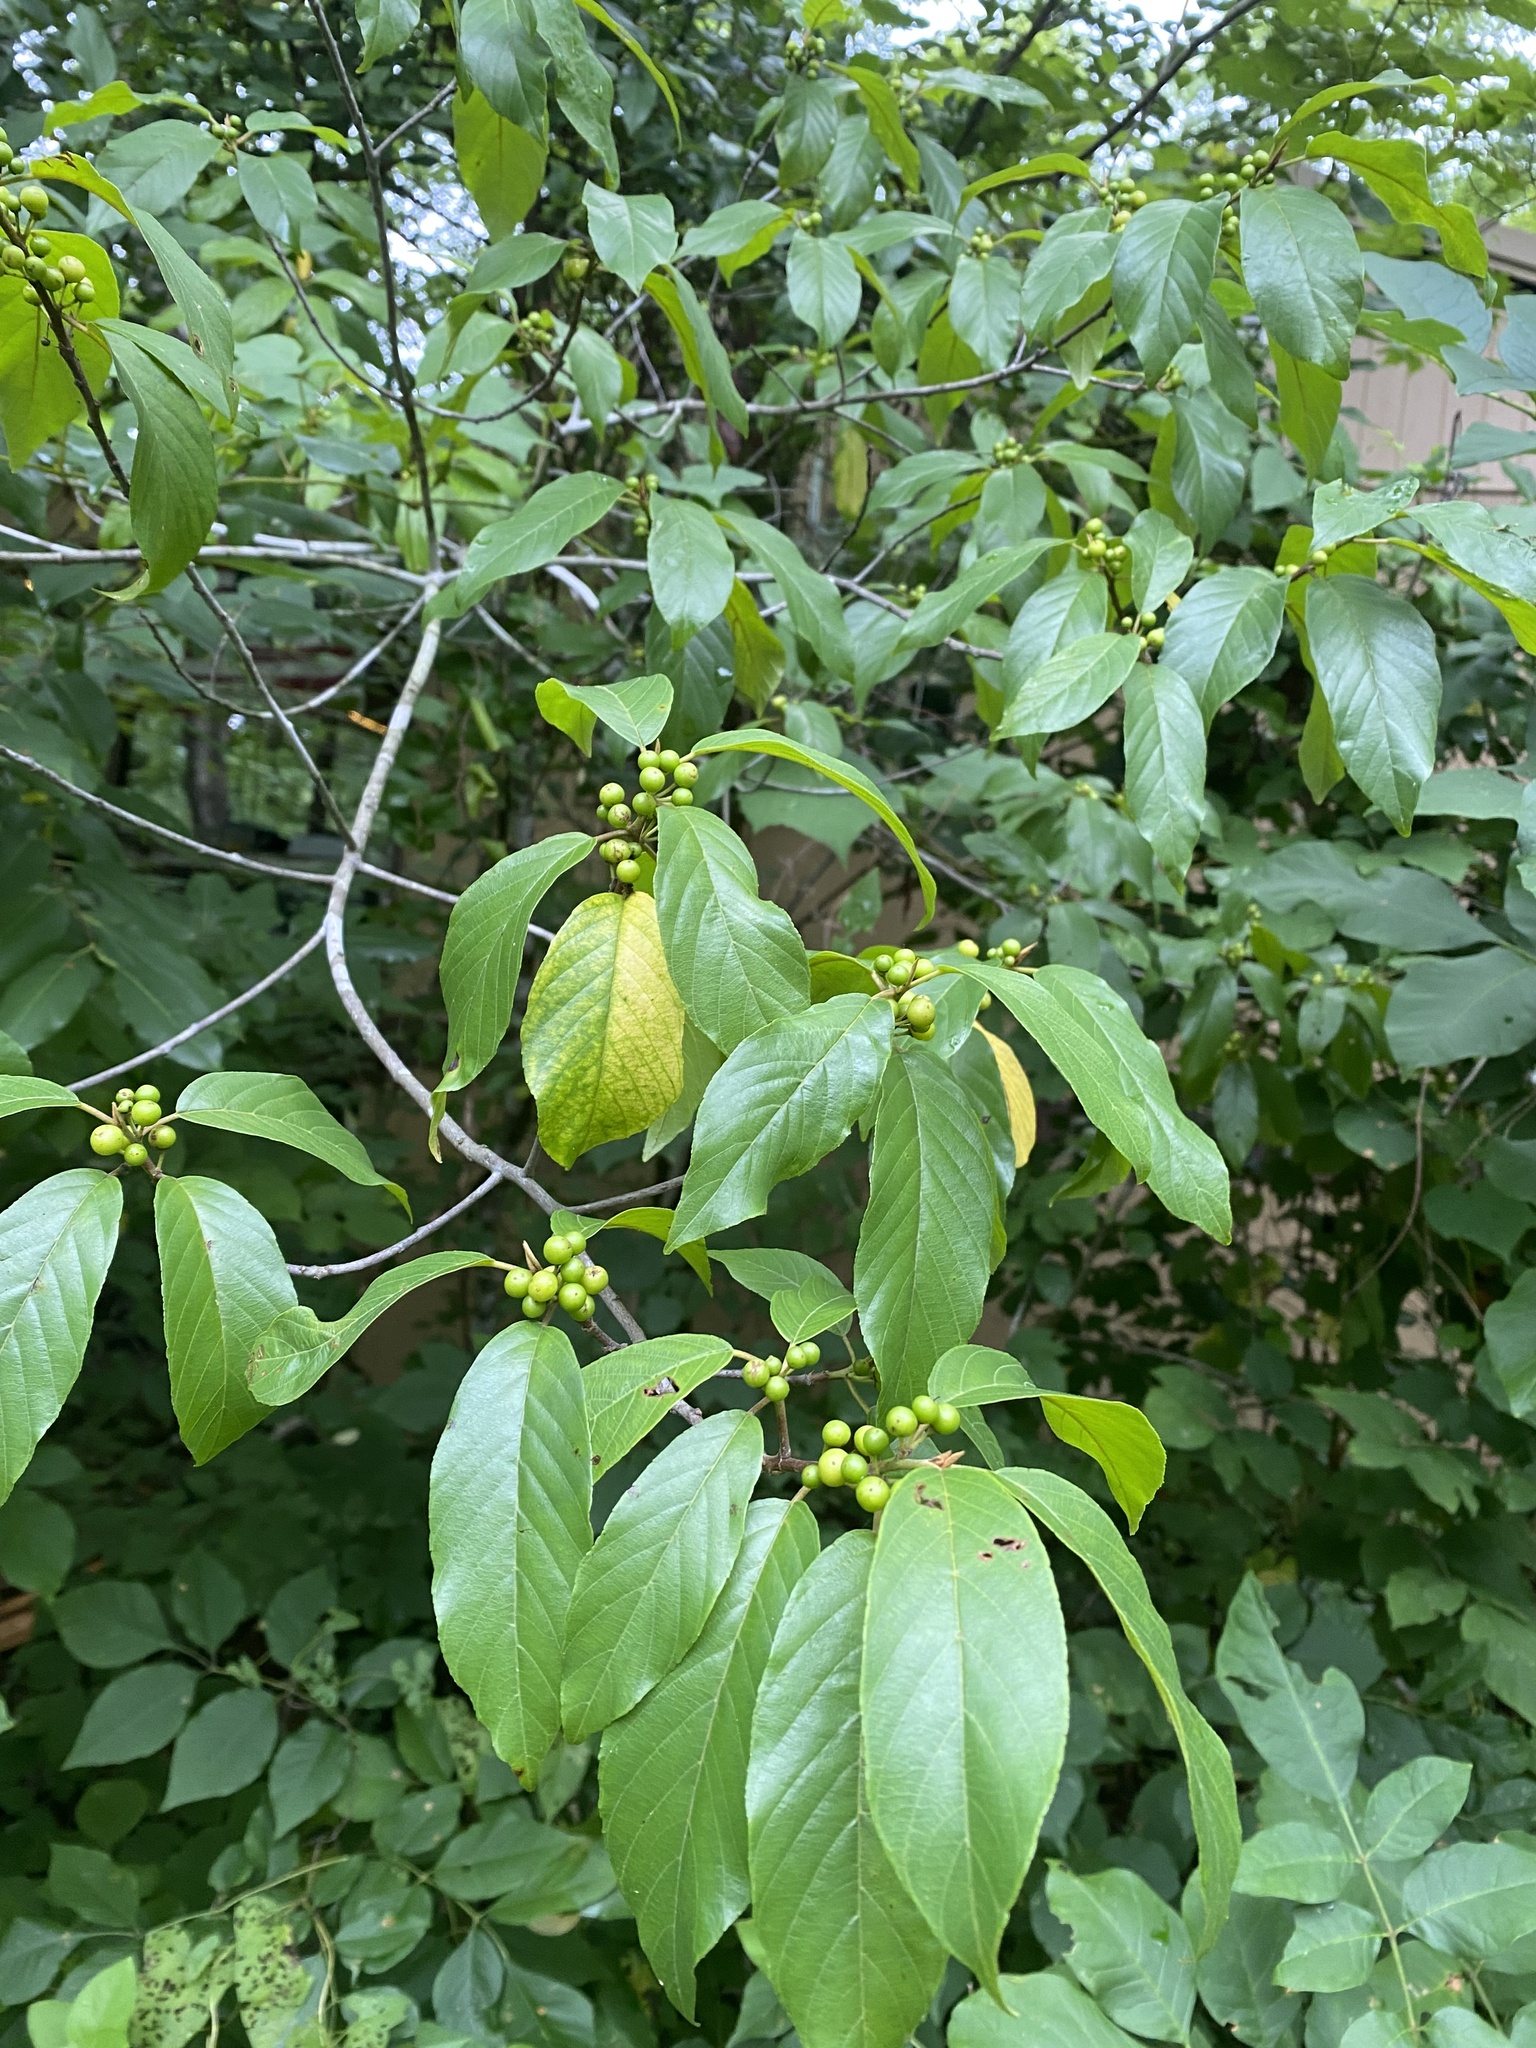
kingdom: Plantae
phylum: Tracheophyta
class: Magnoliopsida
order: Rosales
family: Rhamnaceae
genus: Frangula
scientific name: Frangula caroliniana
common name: Carolina buckthorn
